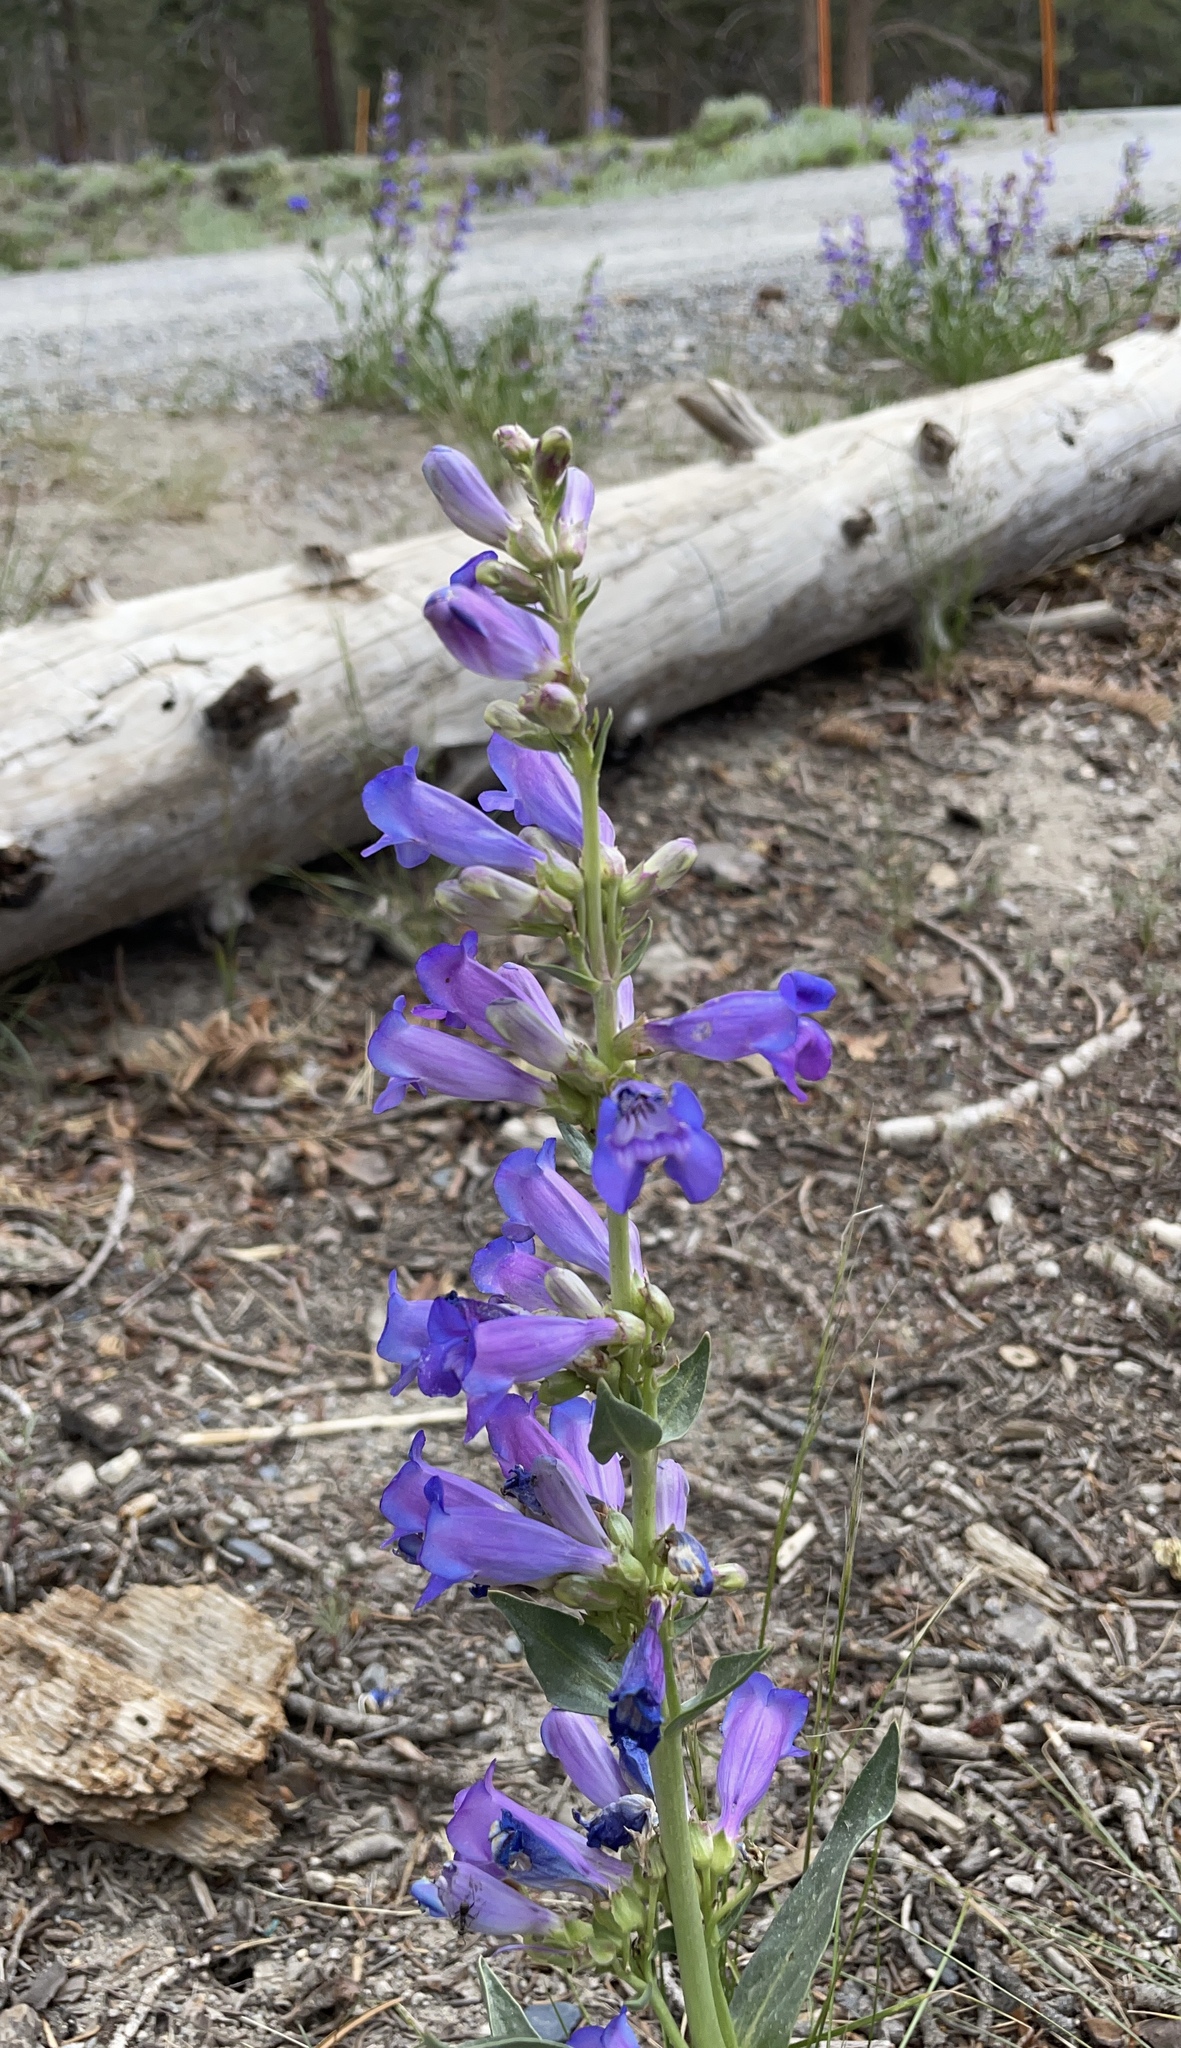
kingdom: Plantae
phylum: Tracheophyta
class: Magnoliopsida
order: Lamiales
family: Plantaginaceae
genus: Penstemon
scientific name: Penstemon speciosus
